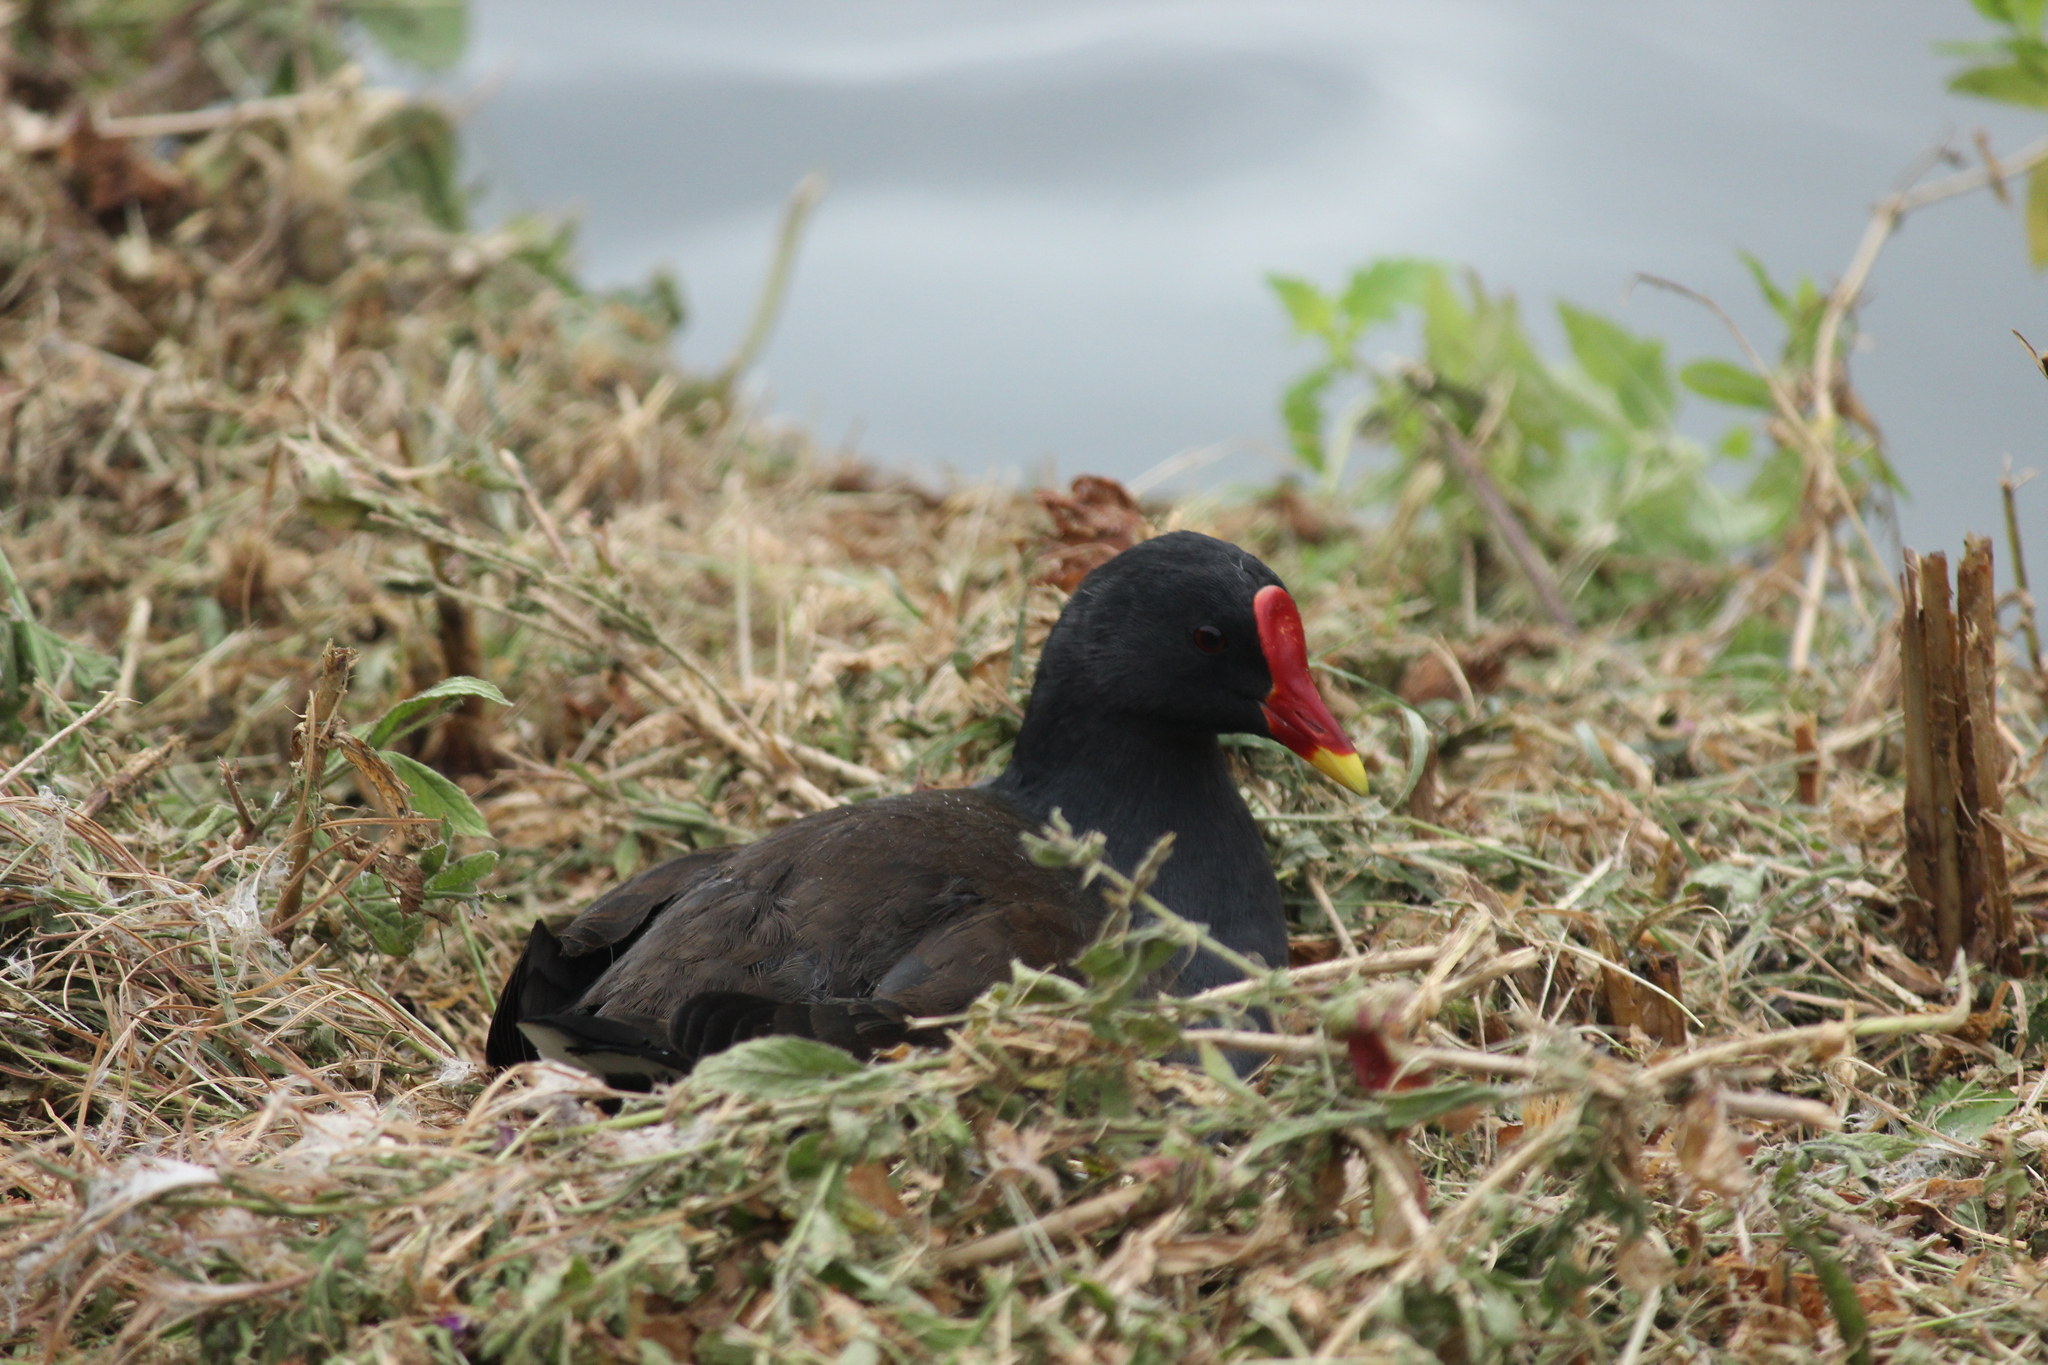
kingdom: Animalia
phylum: Chordata
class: Aves
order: Gruiformes
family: Rallidae
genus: Gallinula
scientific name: Gallinula chloropus
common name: Common moorhen
